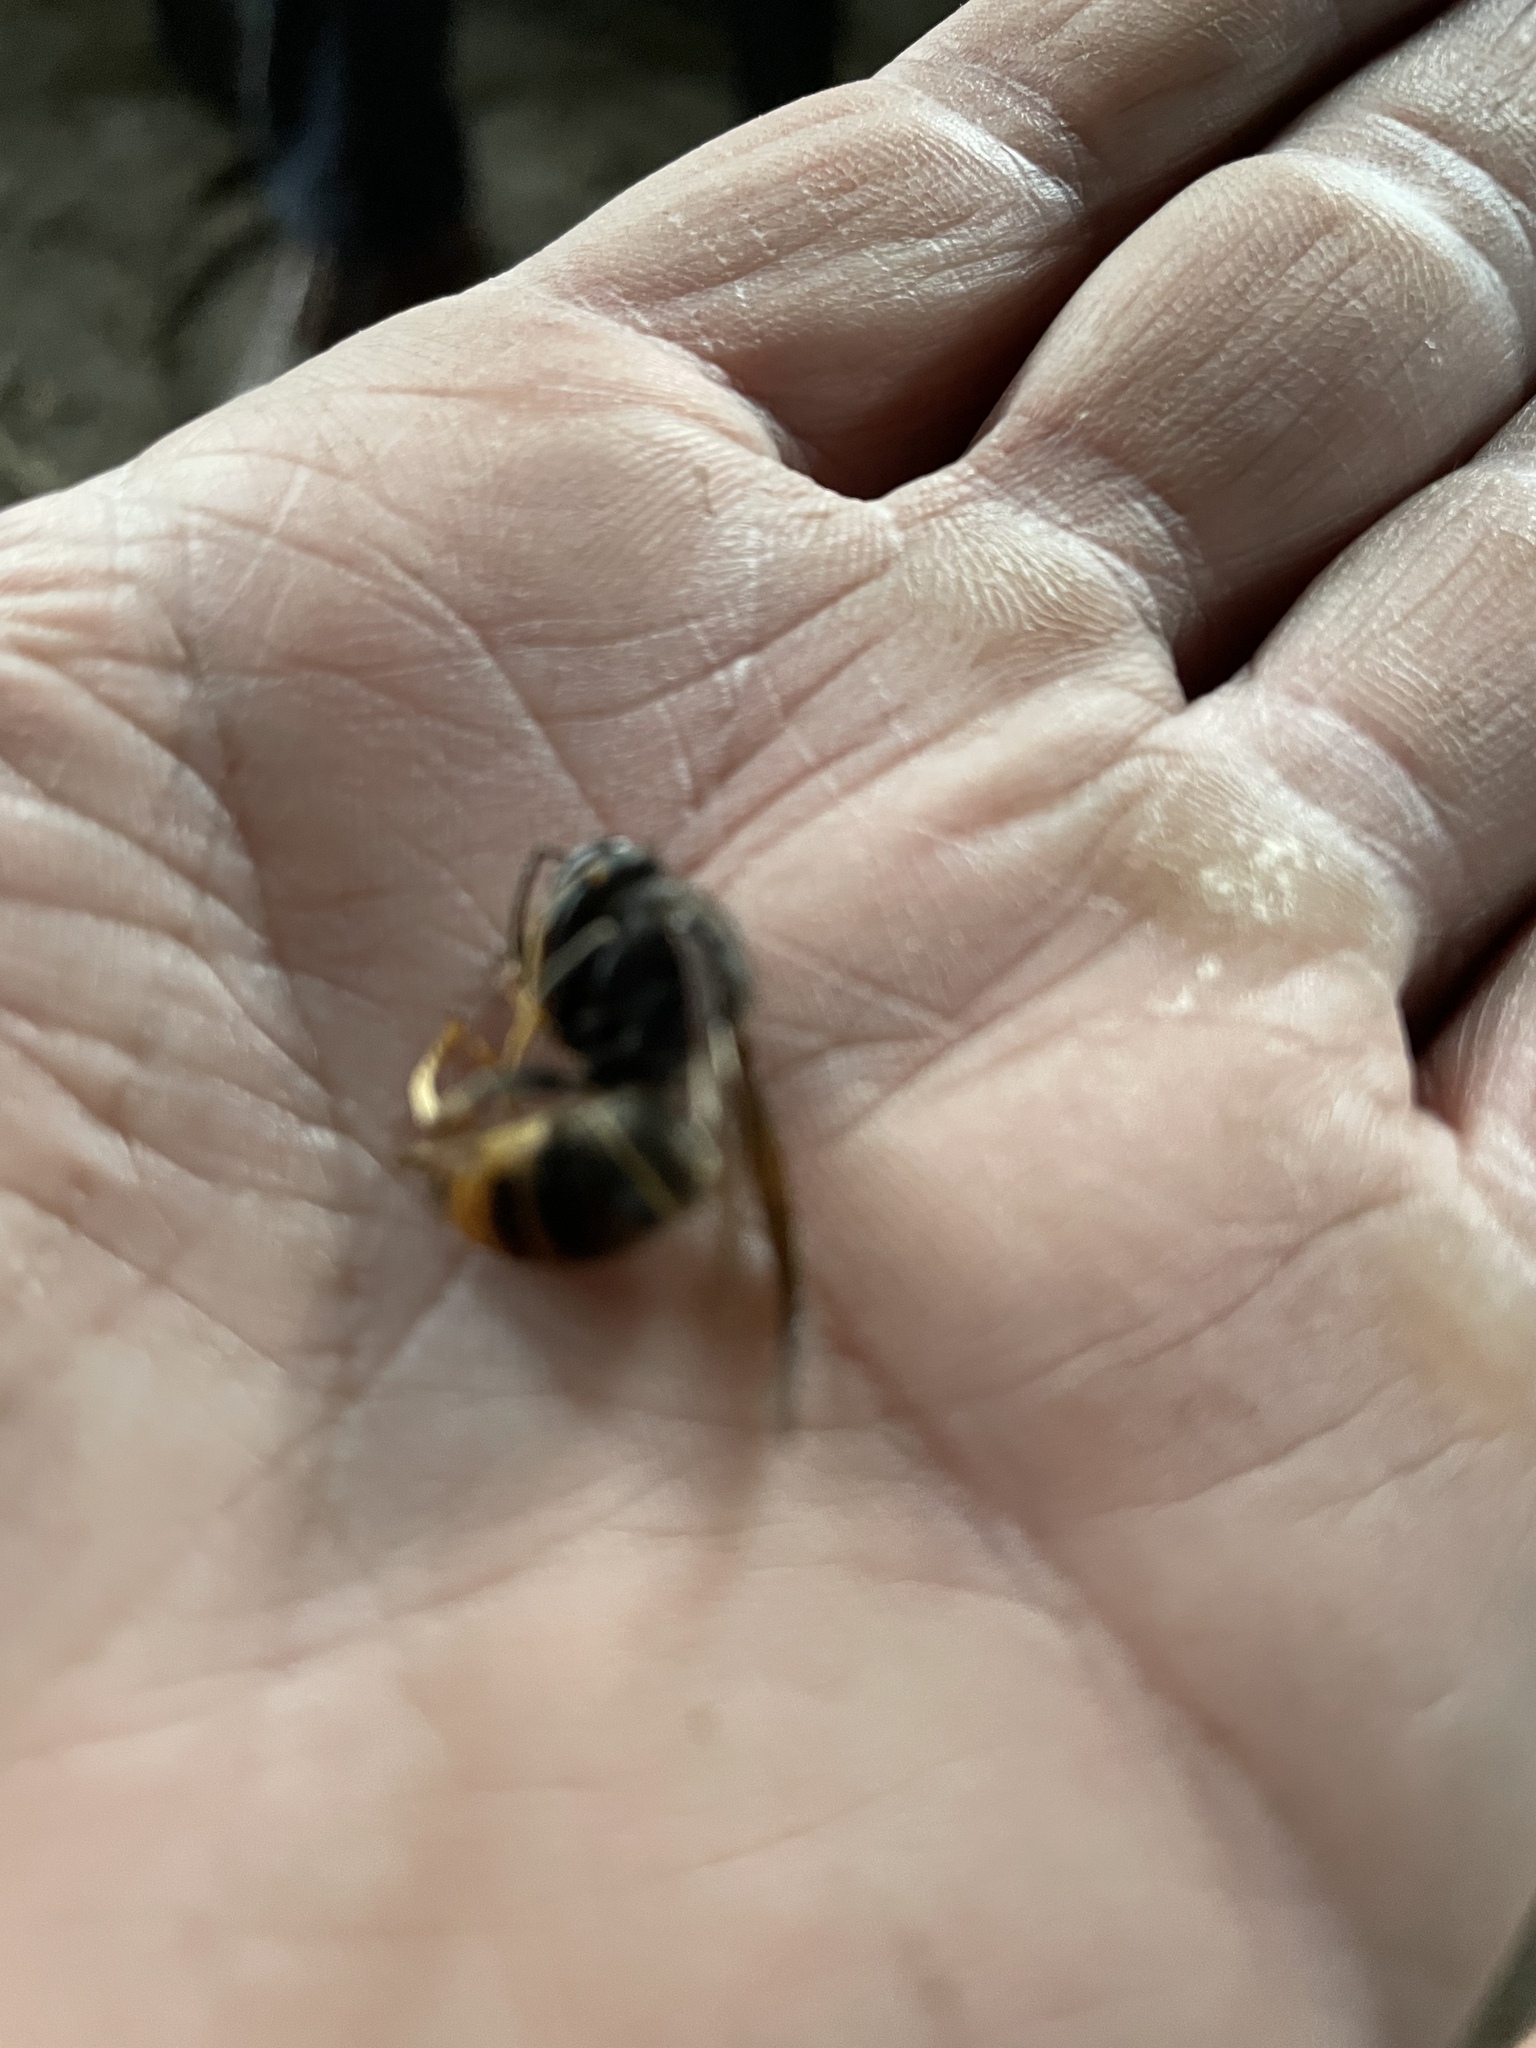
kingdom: Animalia
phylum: Arthropoda
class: Insecta
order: Hymenoptera
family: Vespidae
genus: Vespa
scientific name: Vespa velutina
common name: Asian hornet
